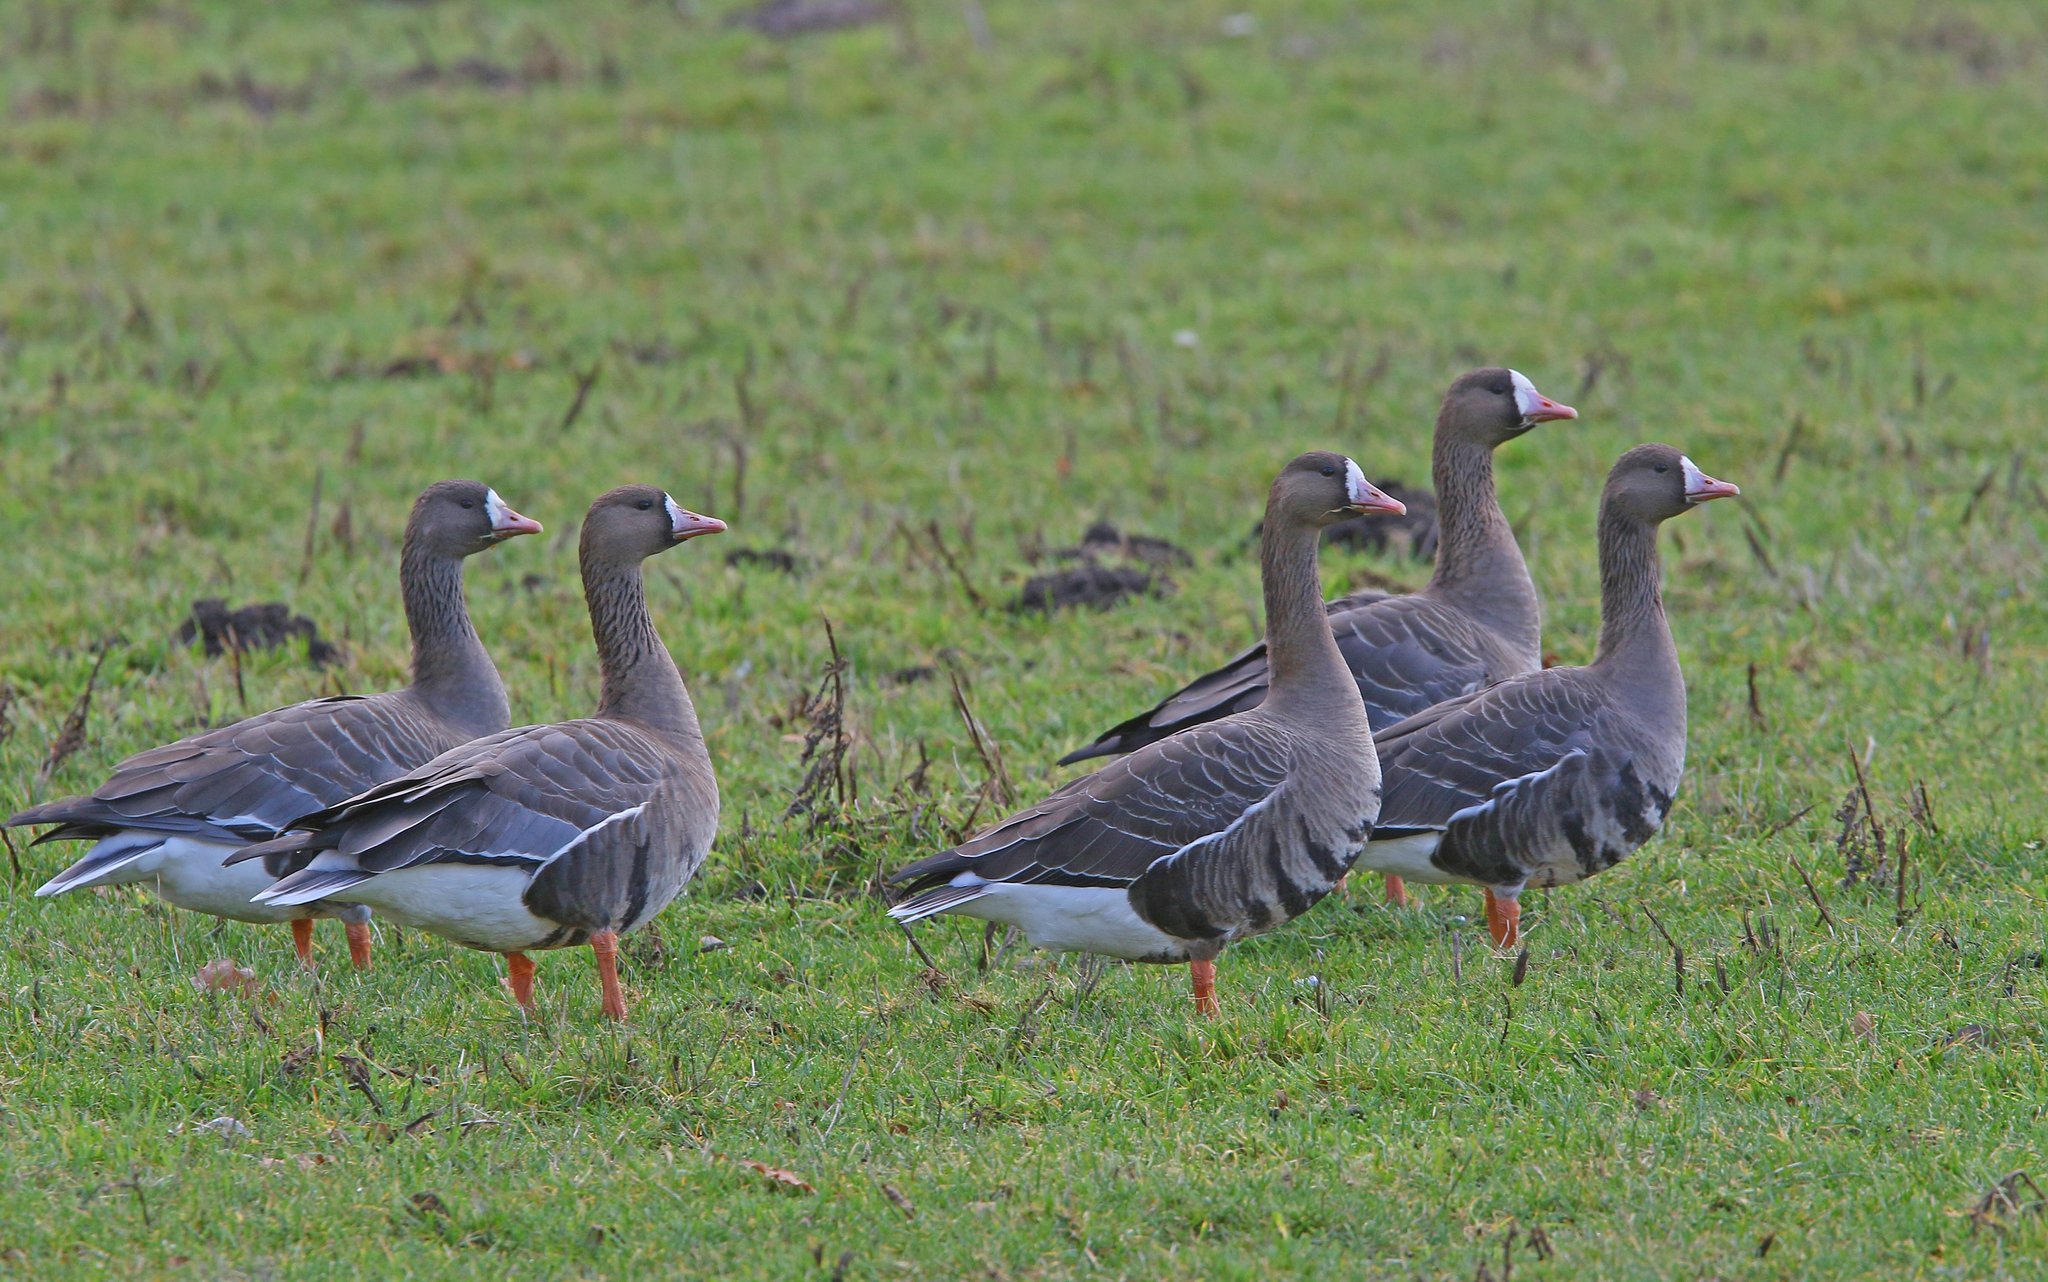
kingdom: Animalia
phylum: Chordata
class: Aves
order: Anseriformes
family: Anatidae
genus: Anser
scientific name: Anser albifrons
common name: Greater white-fronted goose
